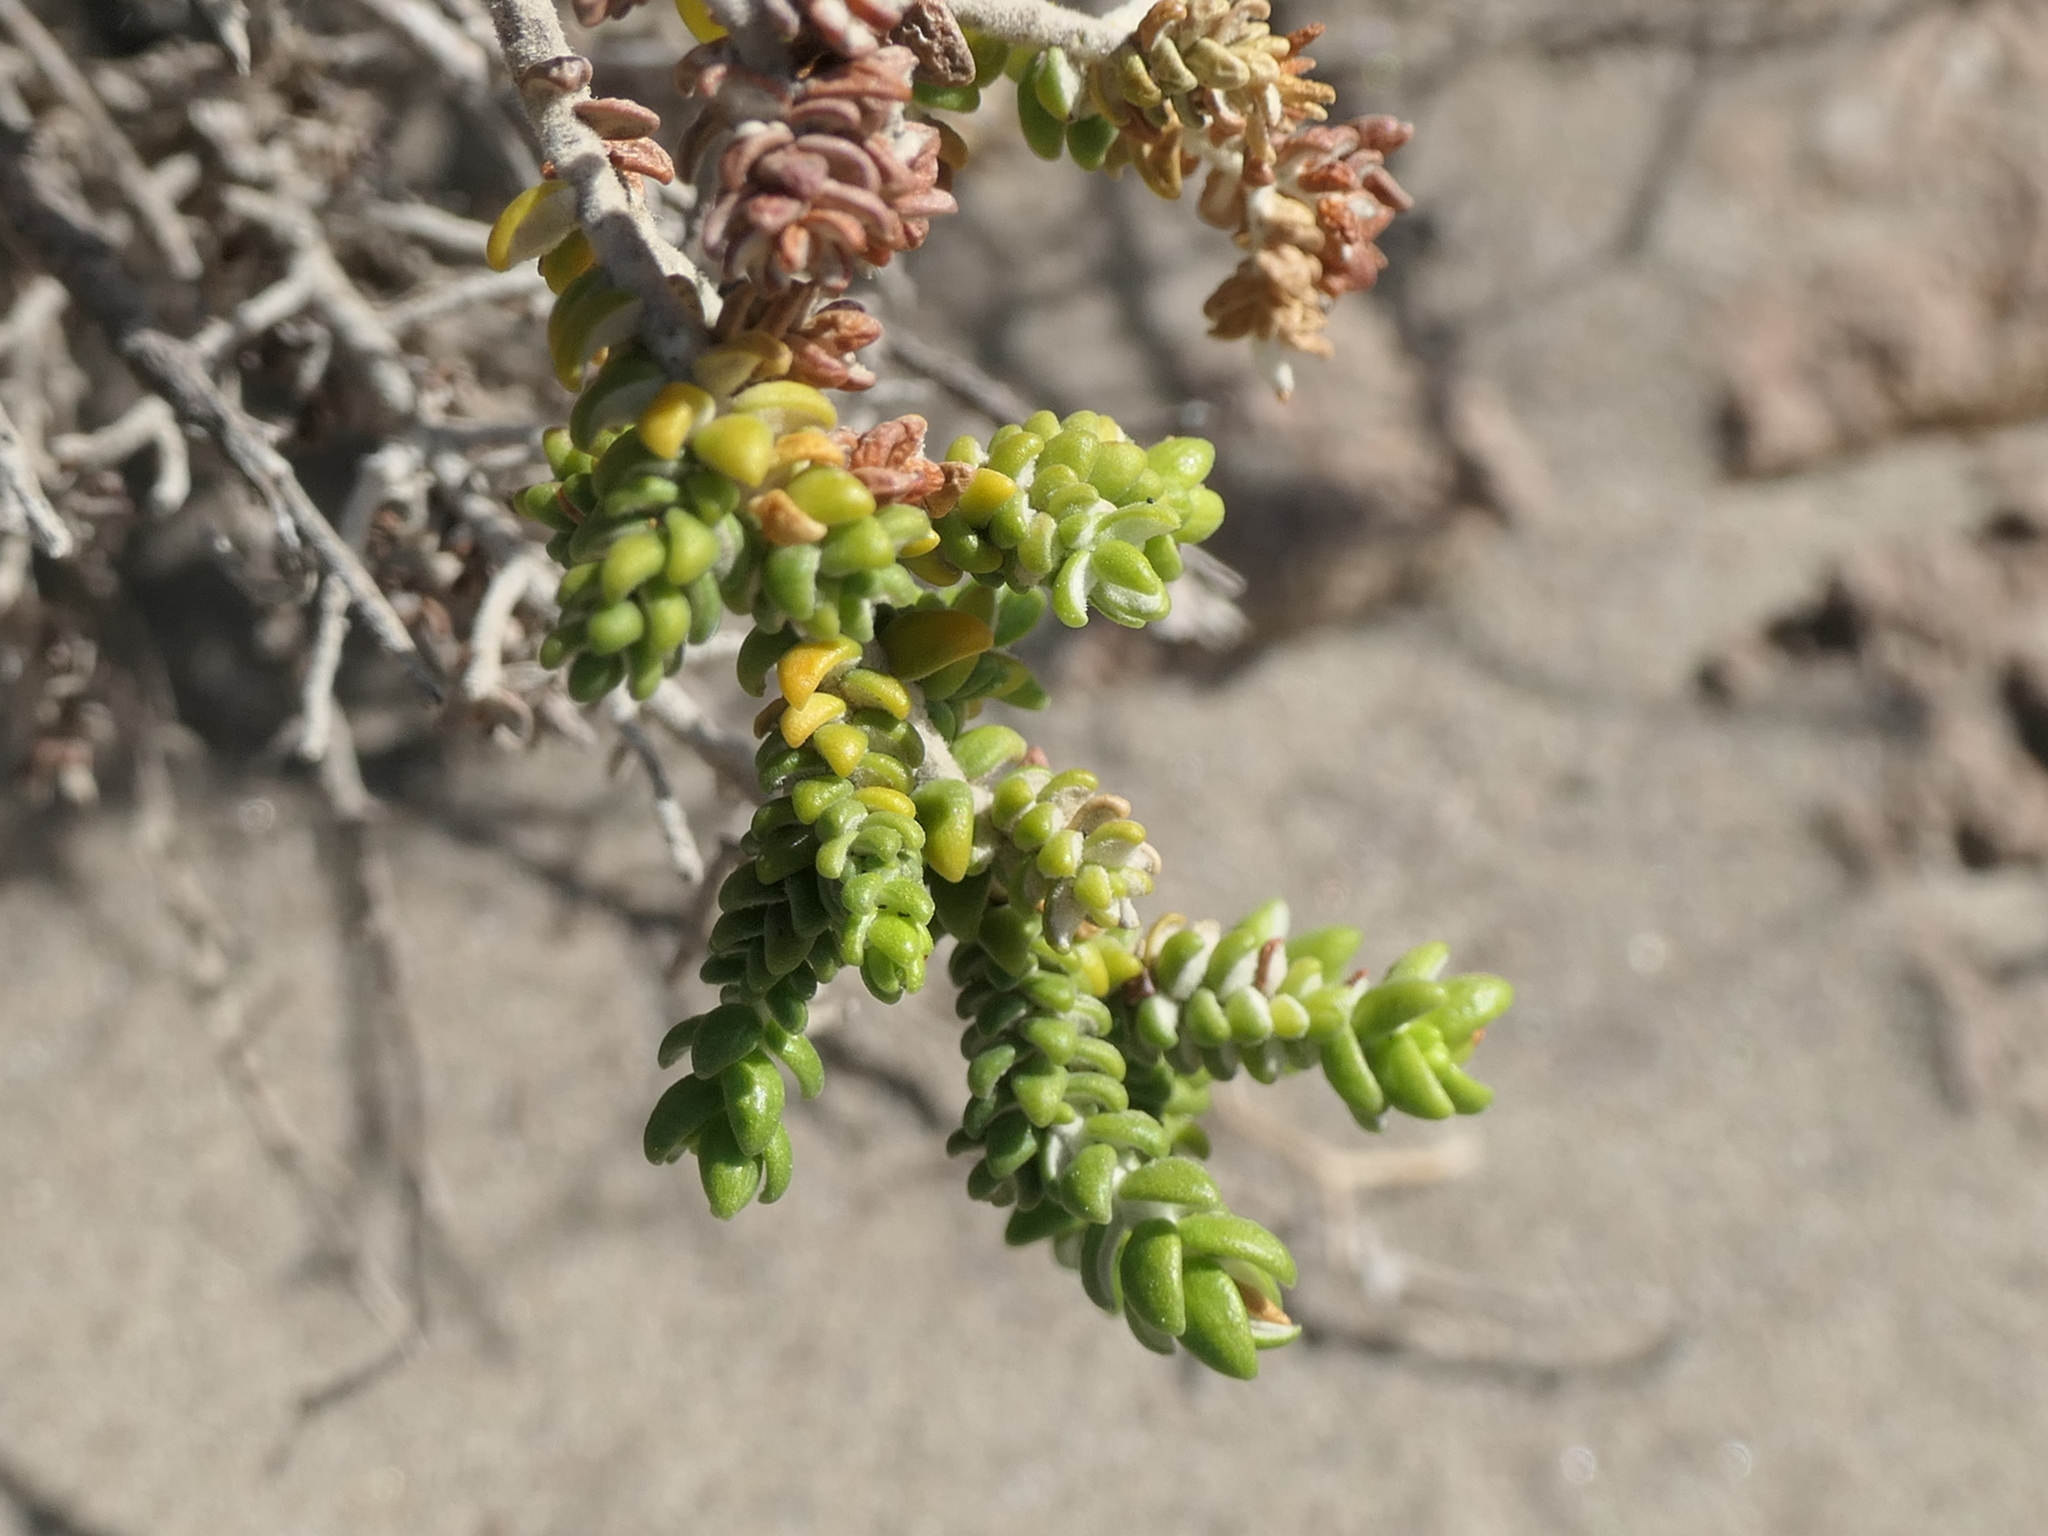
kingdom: Plantae
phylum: Tracheophyta
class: Magnoliopsida
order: Malvales
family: Thymelaeaceae
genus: Thymelaea
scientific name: Thymelaea hirsuta
